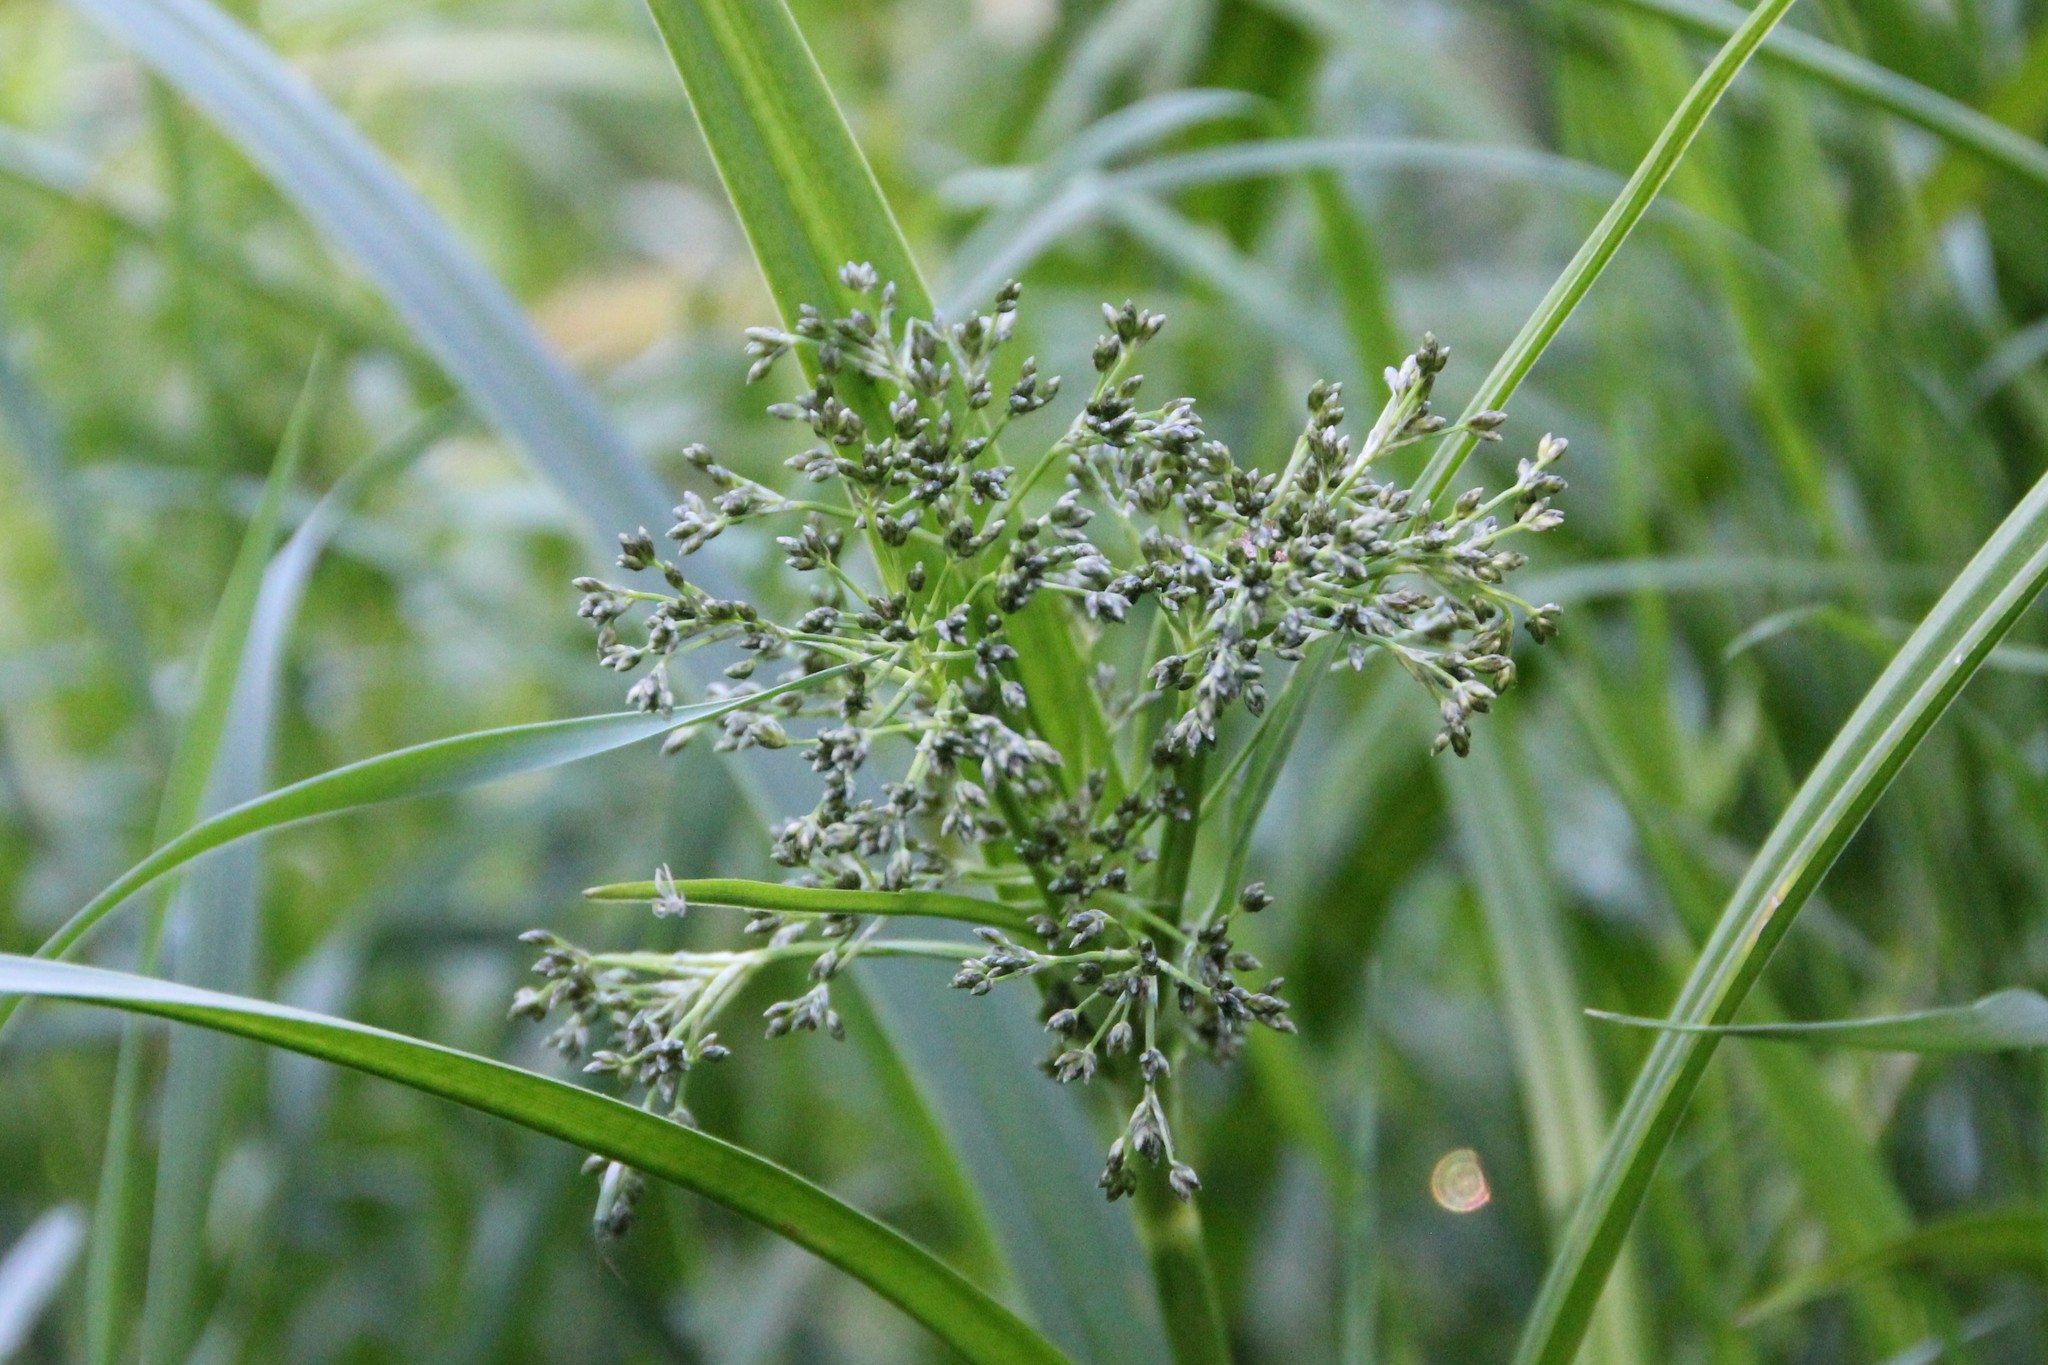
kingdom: Plantae
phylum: Tracheophyta
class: Liliopsida
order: Poales
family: Cyperaceae
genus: Scirpus
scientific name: Scirpus sylvaticus
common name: Wood club-rush
